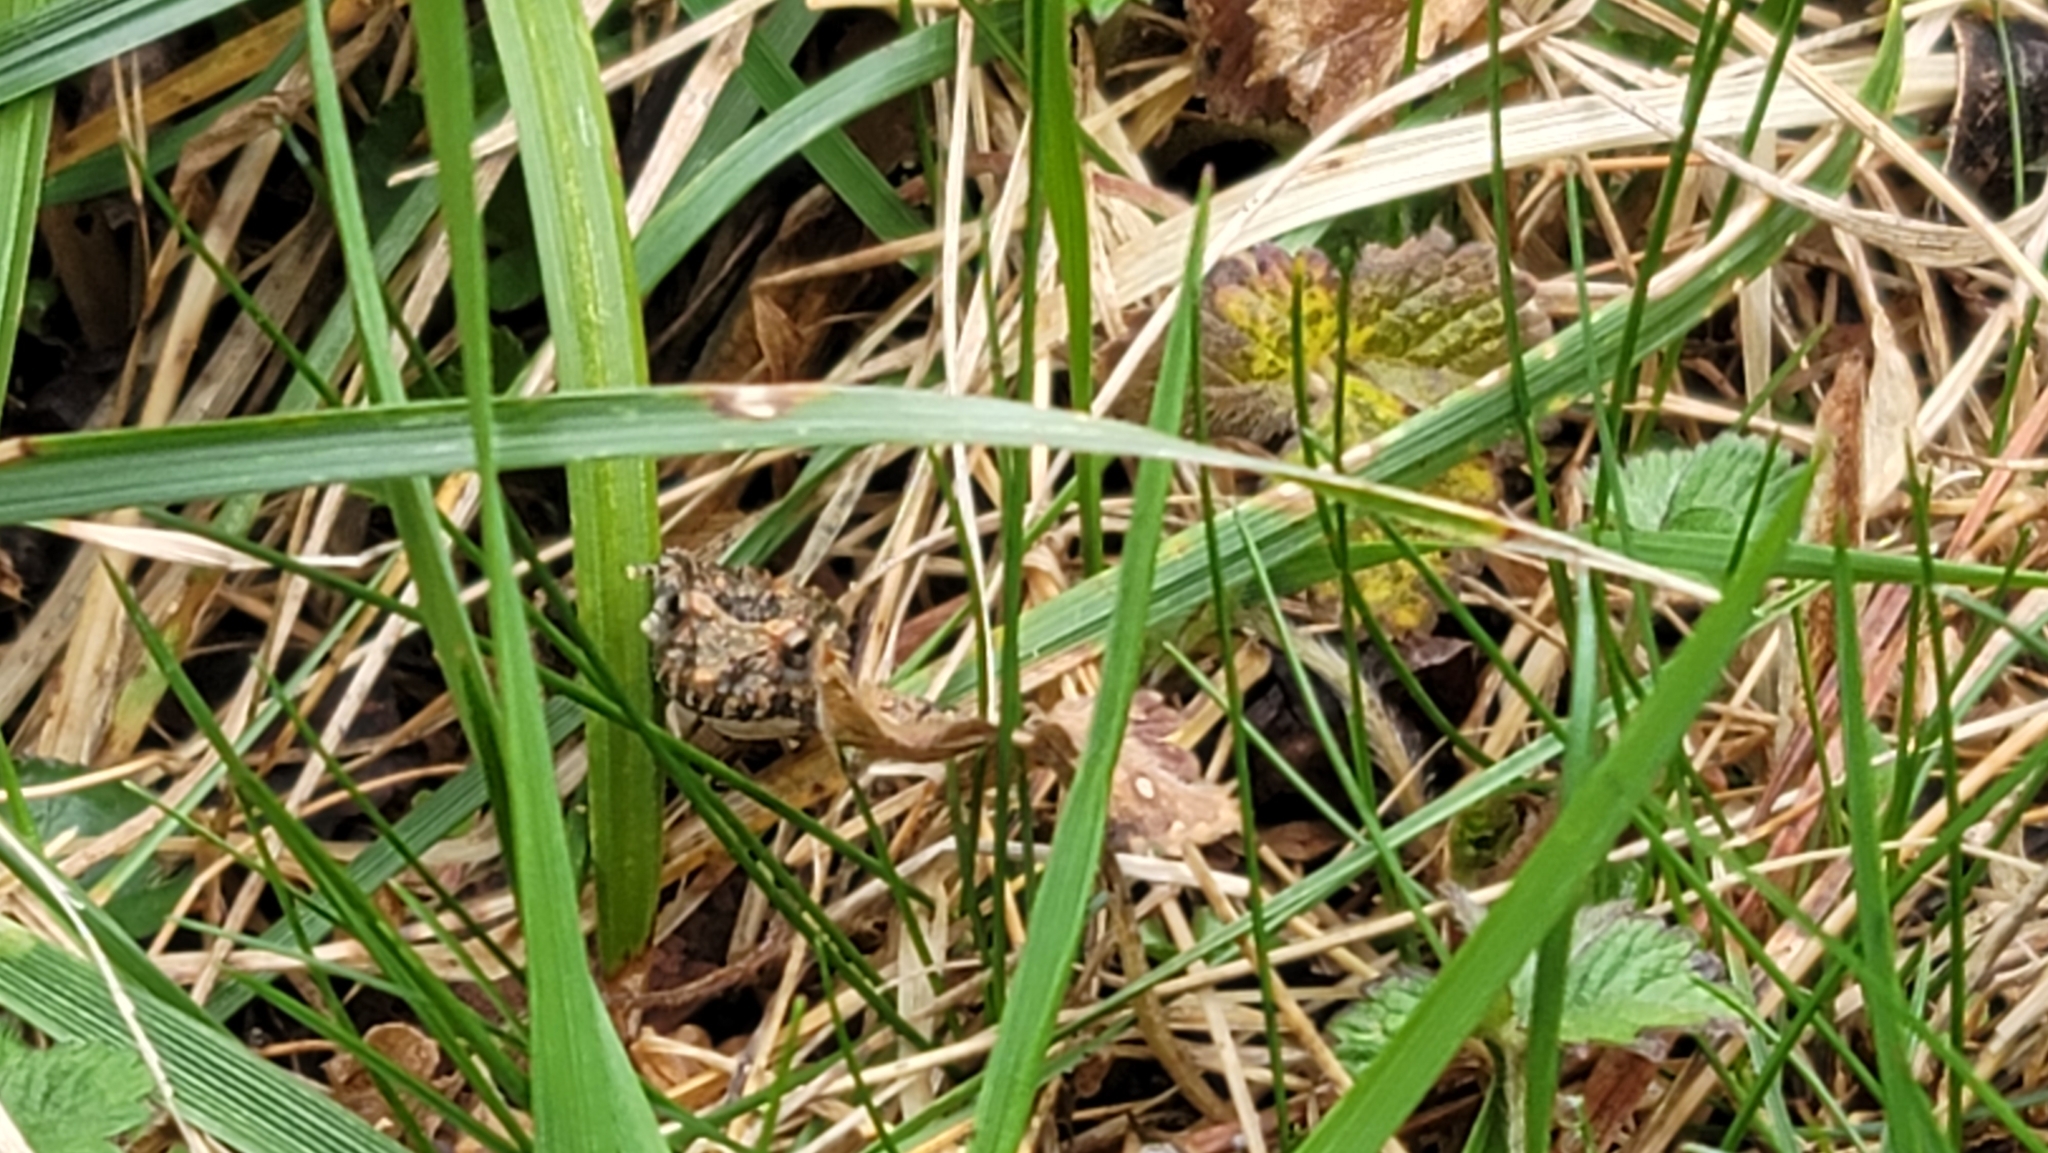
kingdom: Animalia
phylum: Chordata
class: Amphibia
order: Anura
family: Hylidae
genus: Acris
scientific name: Acris crepitans
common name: Northern cricket frog
